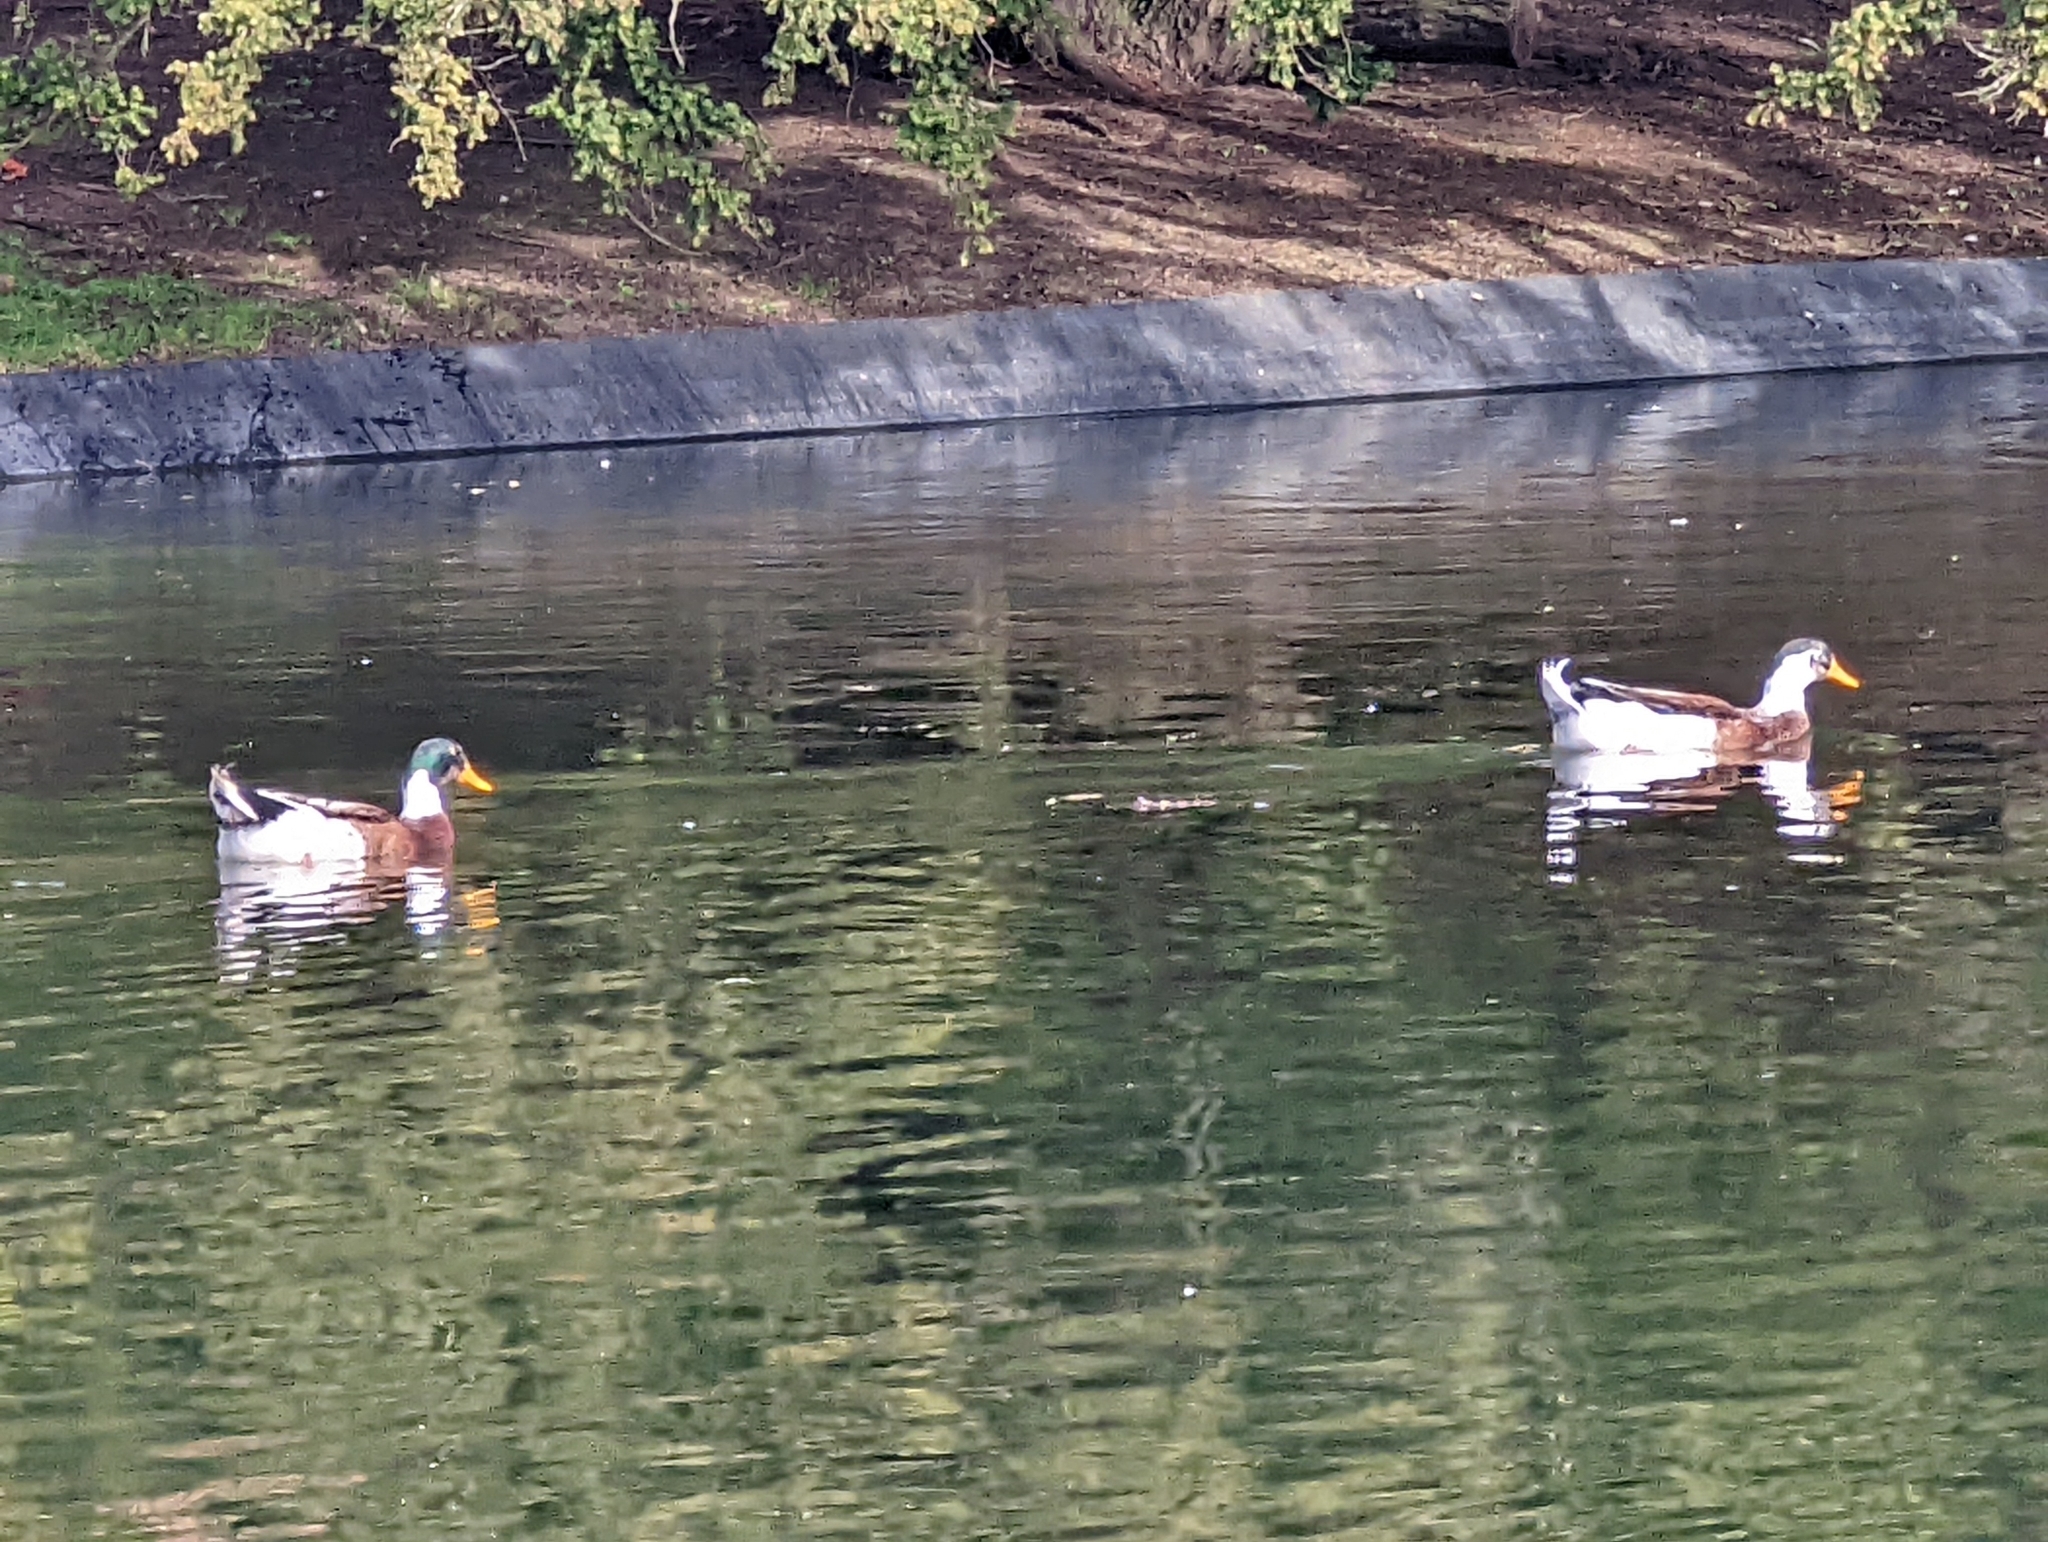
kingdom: Animalia
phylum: Chordata
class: Aves
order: Anseriformes
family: Anatidae
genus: Anas
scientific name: Anas platyrhynchos
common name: Mallard
